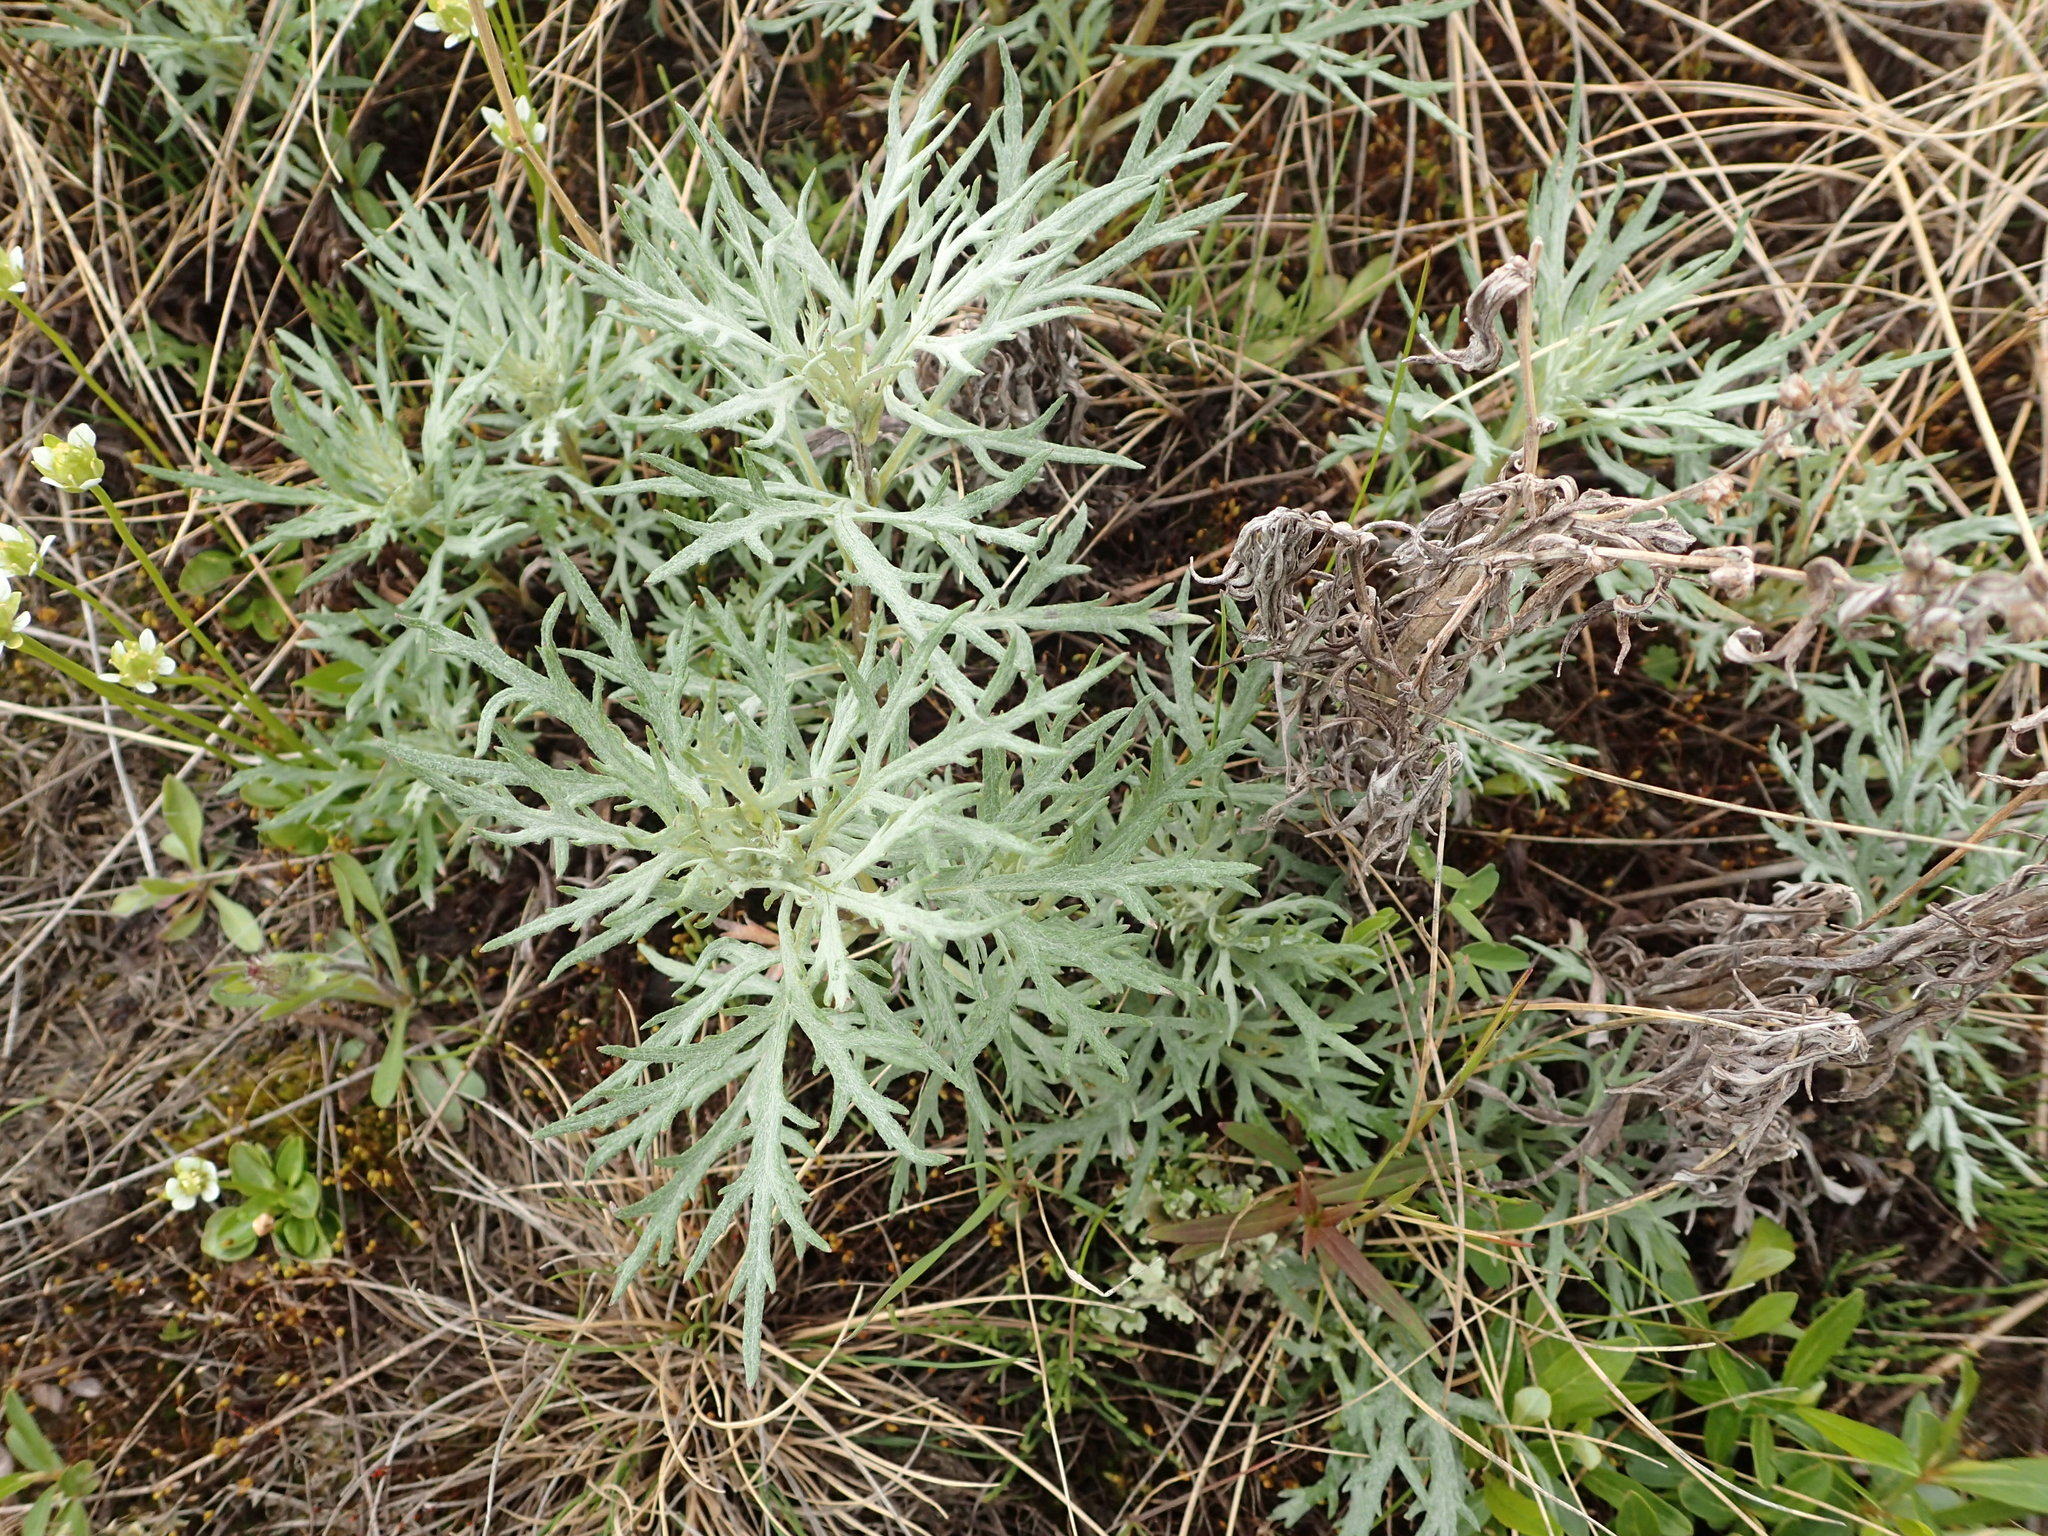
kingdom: Plantae
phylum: Tracheophyta
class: Magnoliopsida
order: Asterales
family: Asteraceae
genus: Artemisia
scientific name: Artemisia tilesii
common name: Aleutian mugwort
